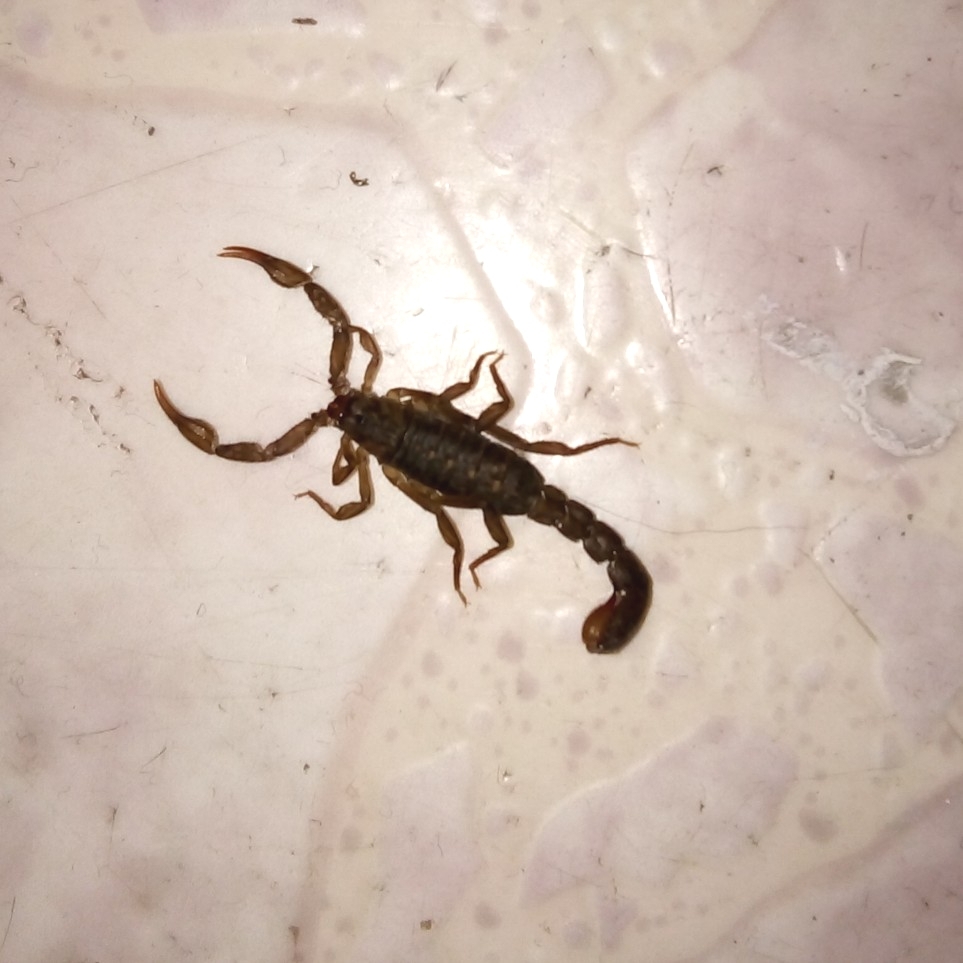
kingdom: Animalia
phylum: Arthropoda
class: Arachnida
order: Scorpiones
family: Vaejovidae
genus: Vaejovis
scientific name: Vaejovis mexicanus
